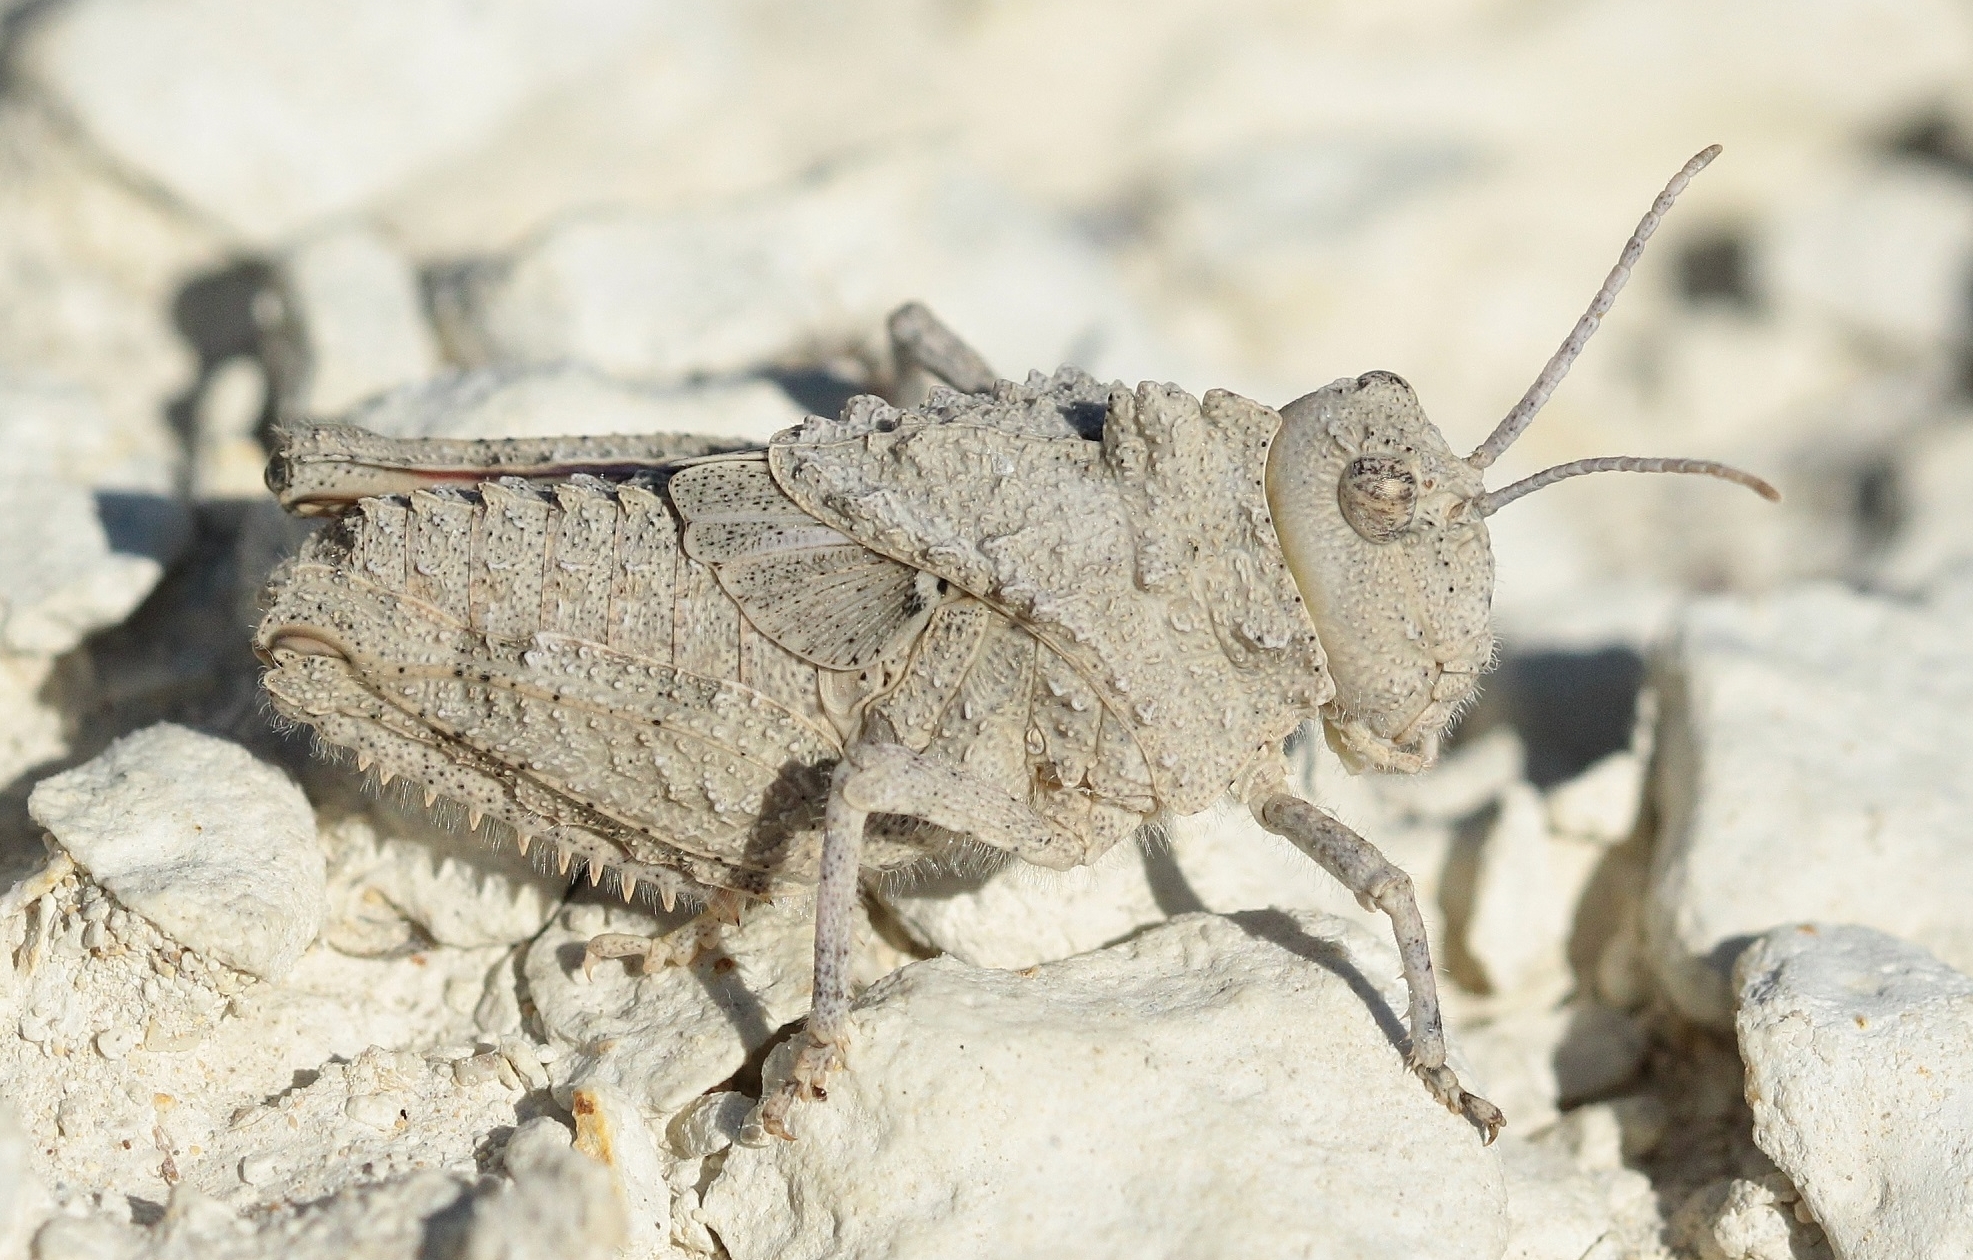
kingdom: Animalia
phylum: Arthropoda
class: Insecta
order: Orthoptera
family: Pamphagidae
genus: Asiotmethis
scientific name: Asiotmethis muricatus
